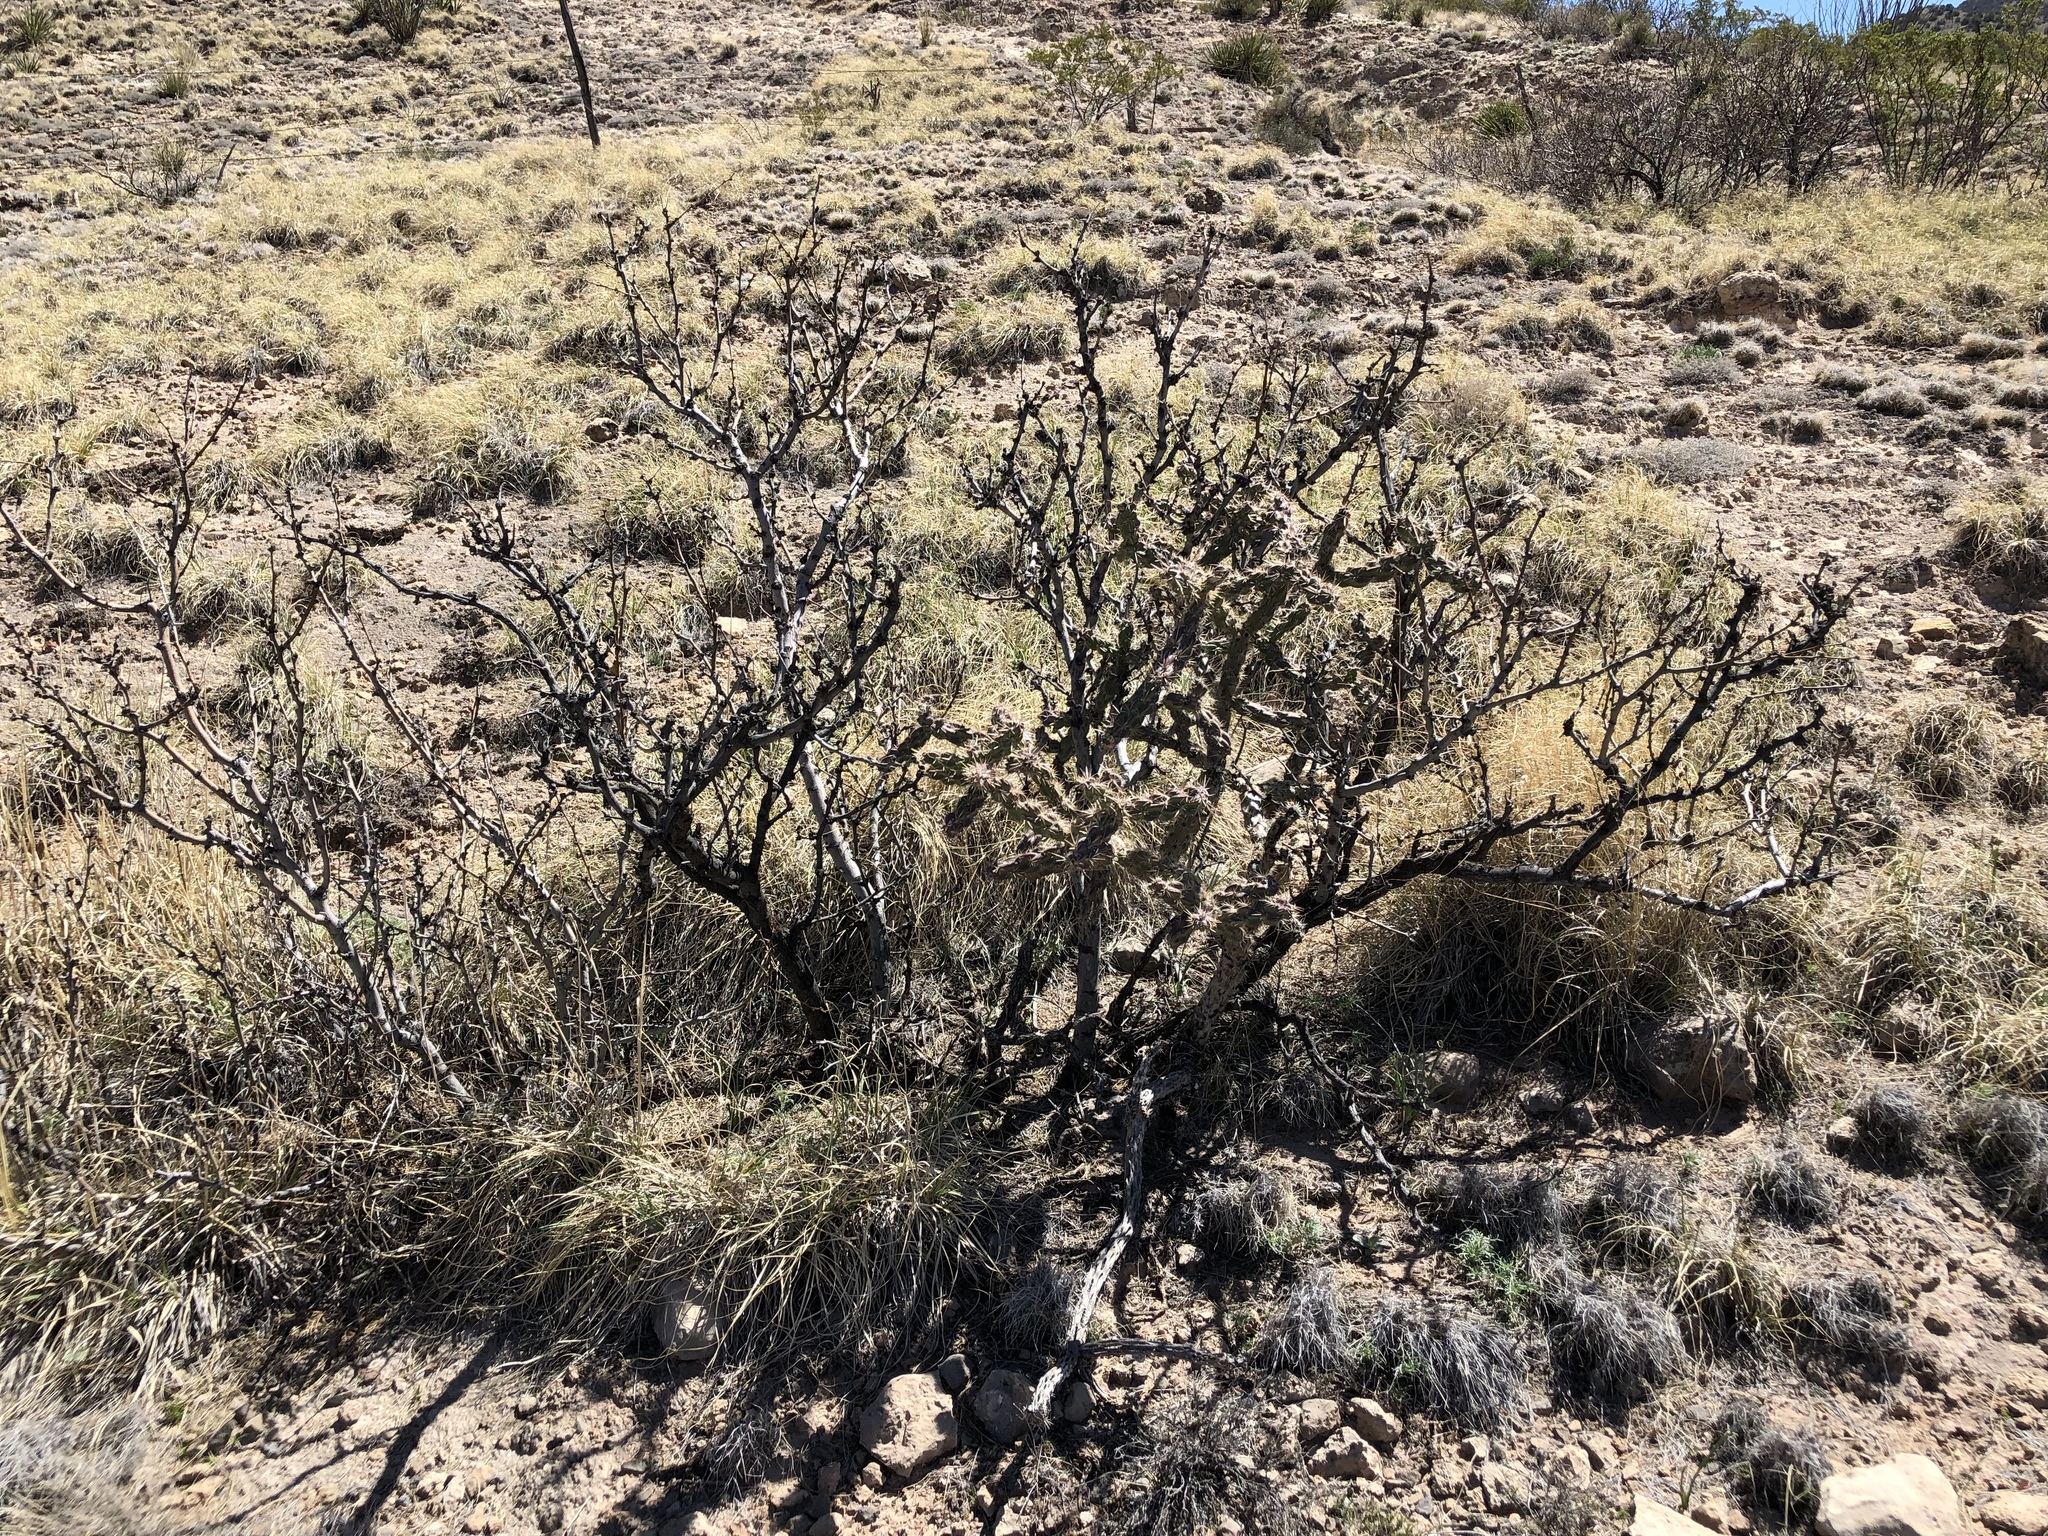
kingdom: Plantae
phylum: Tracheophyta
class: Magnoliopsida
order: Caryophyllales
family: Cactaceae
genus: Cylindropuntia
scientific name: Cylindropuntia imbricata
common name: Candelabrum cactus
